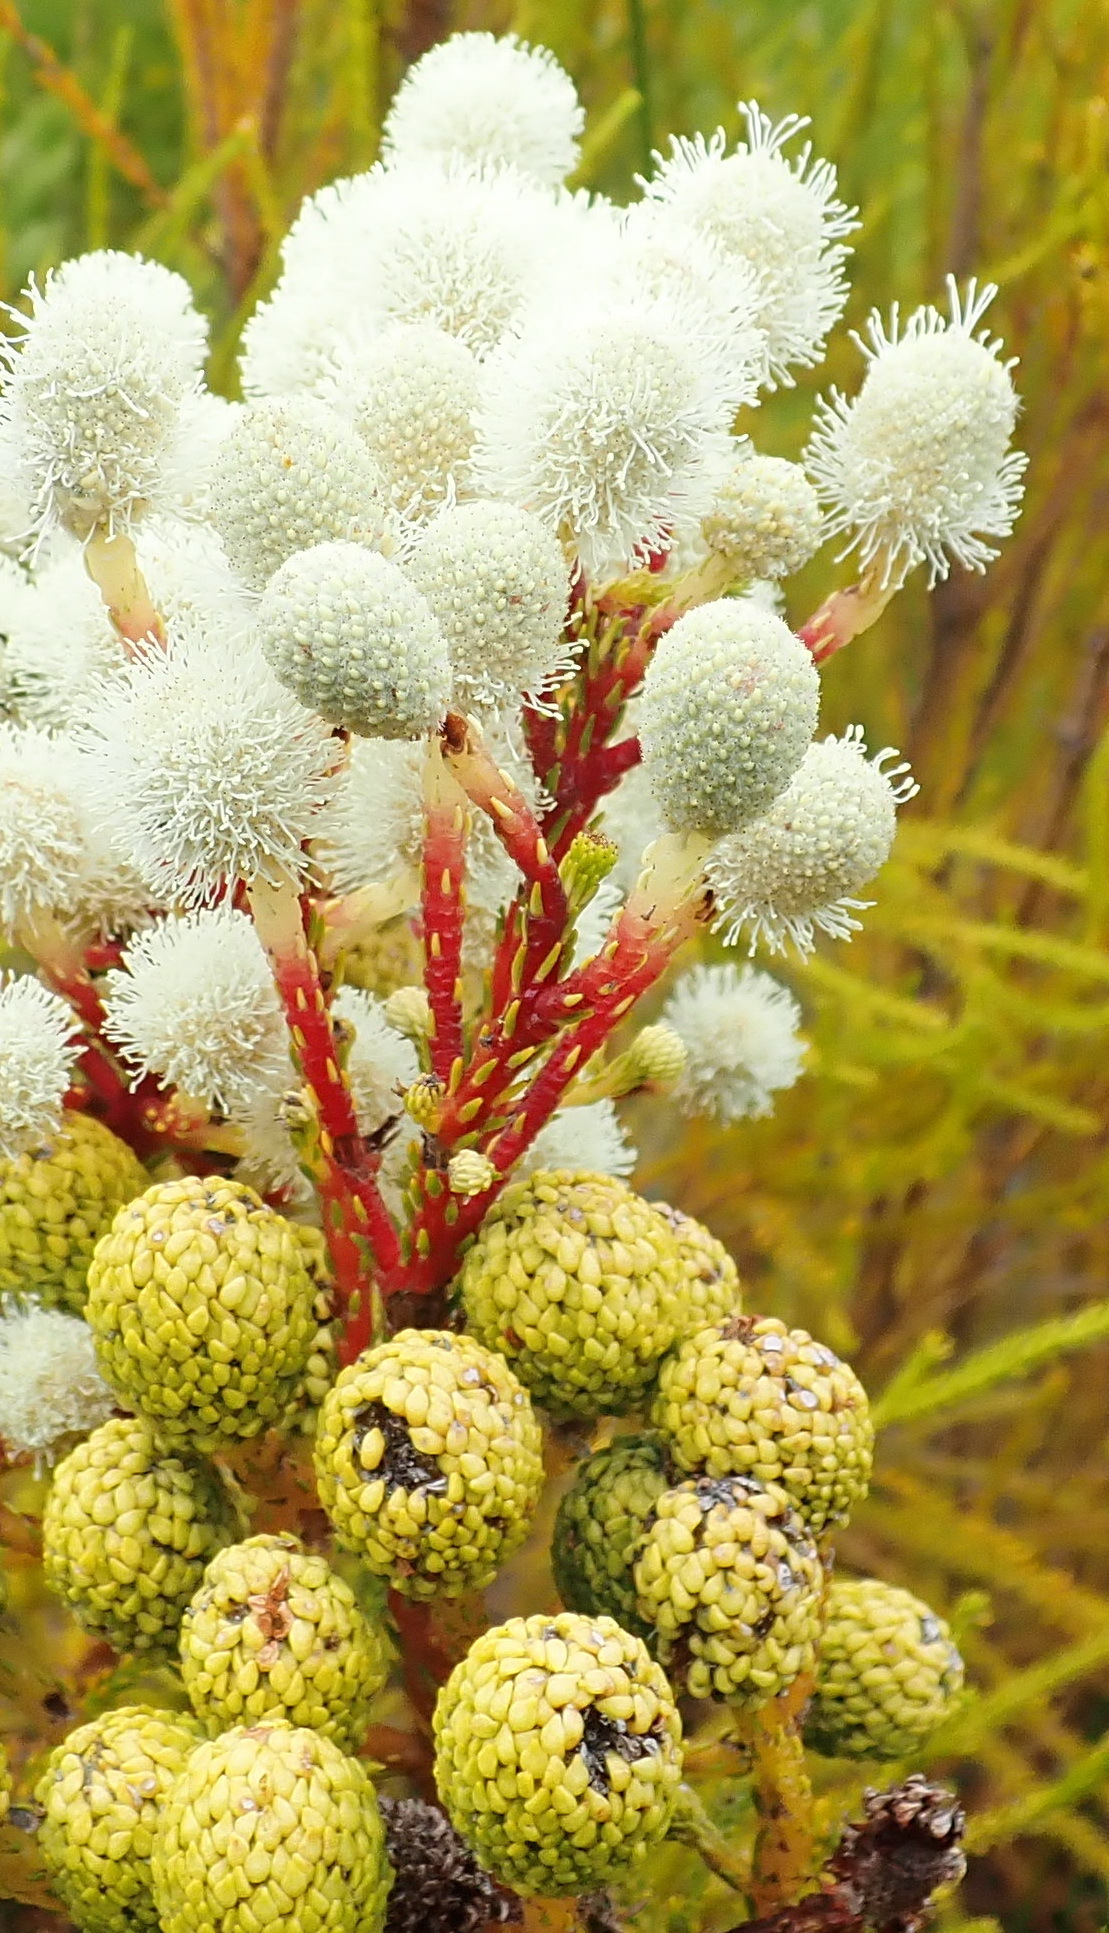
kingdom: Plantae
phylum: Tracheophyta
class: Magnoliopsida
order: Bruniales
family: Bruniaceae
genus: Berzelia
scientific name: Berzelia intermedia
